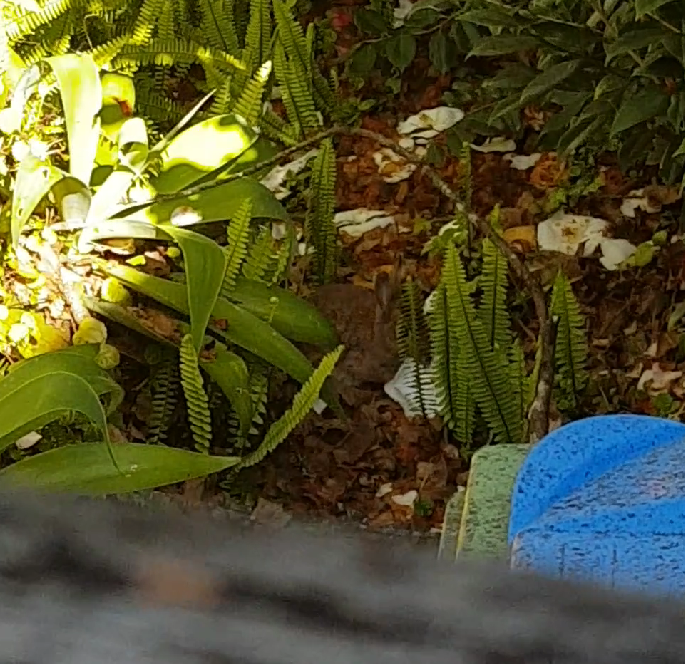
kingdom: Animalia
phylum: Chordata
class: Mammalia
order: Lagomorpha
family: Leporidae
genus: Oryctolagus
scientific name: Oryctolagus cuniculus
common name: European rabbit
